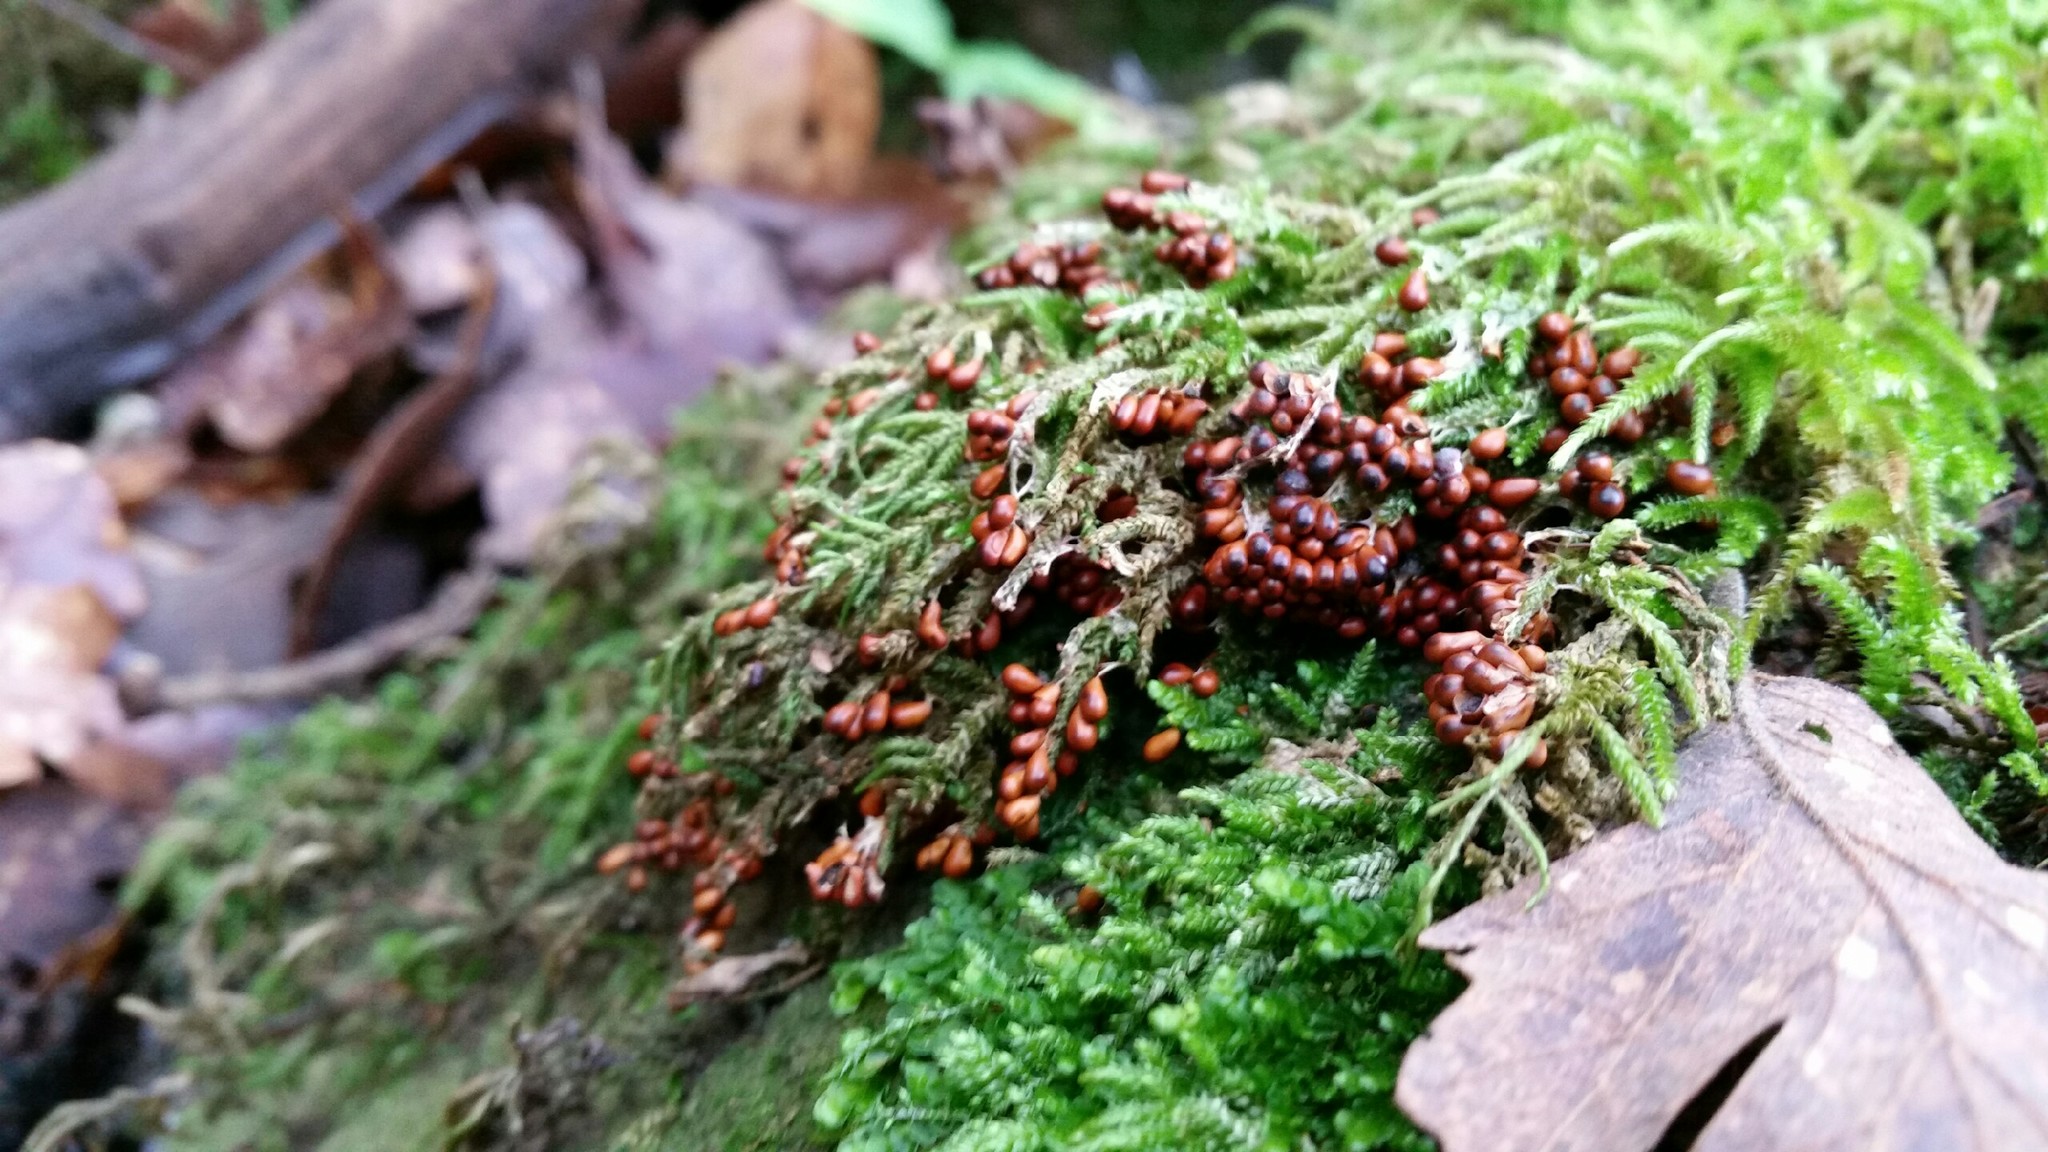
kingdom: Protozoa
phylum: Mycetozoa
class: Myxomycetes
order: Physarales
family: Physaraceae
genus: Leocarpus
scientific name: Leocarpus fragilis
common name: Insect-egg slime
